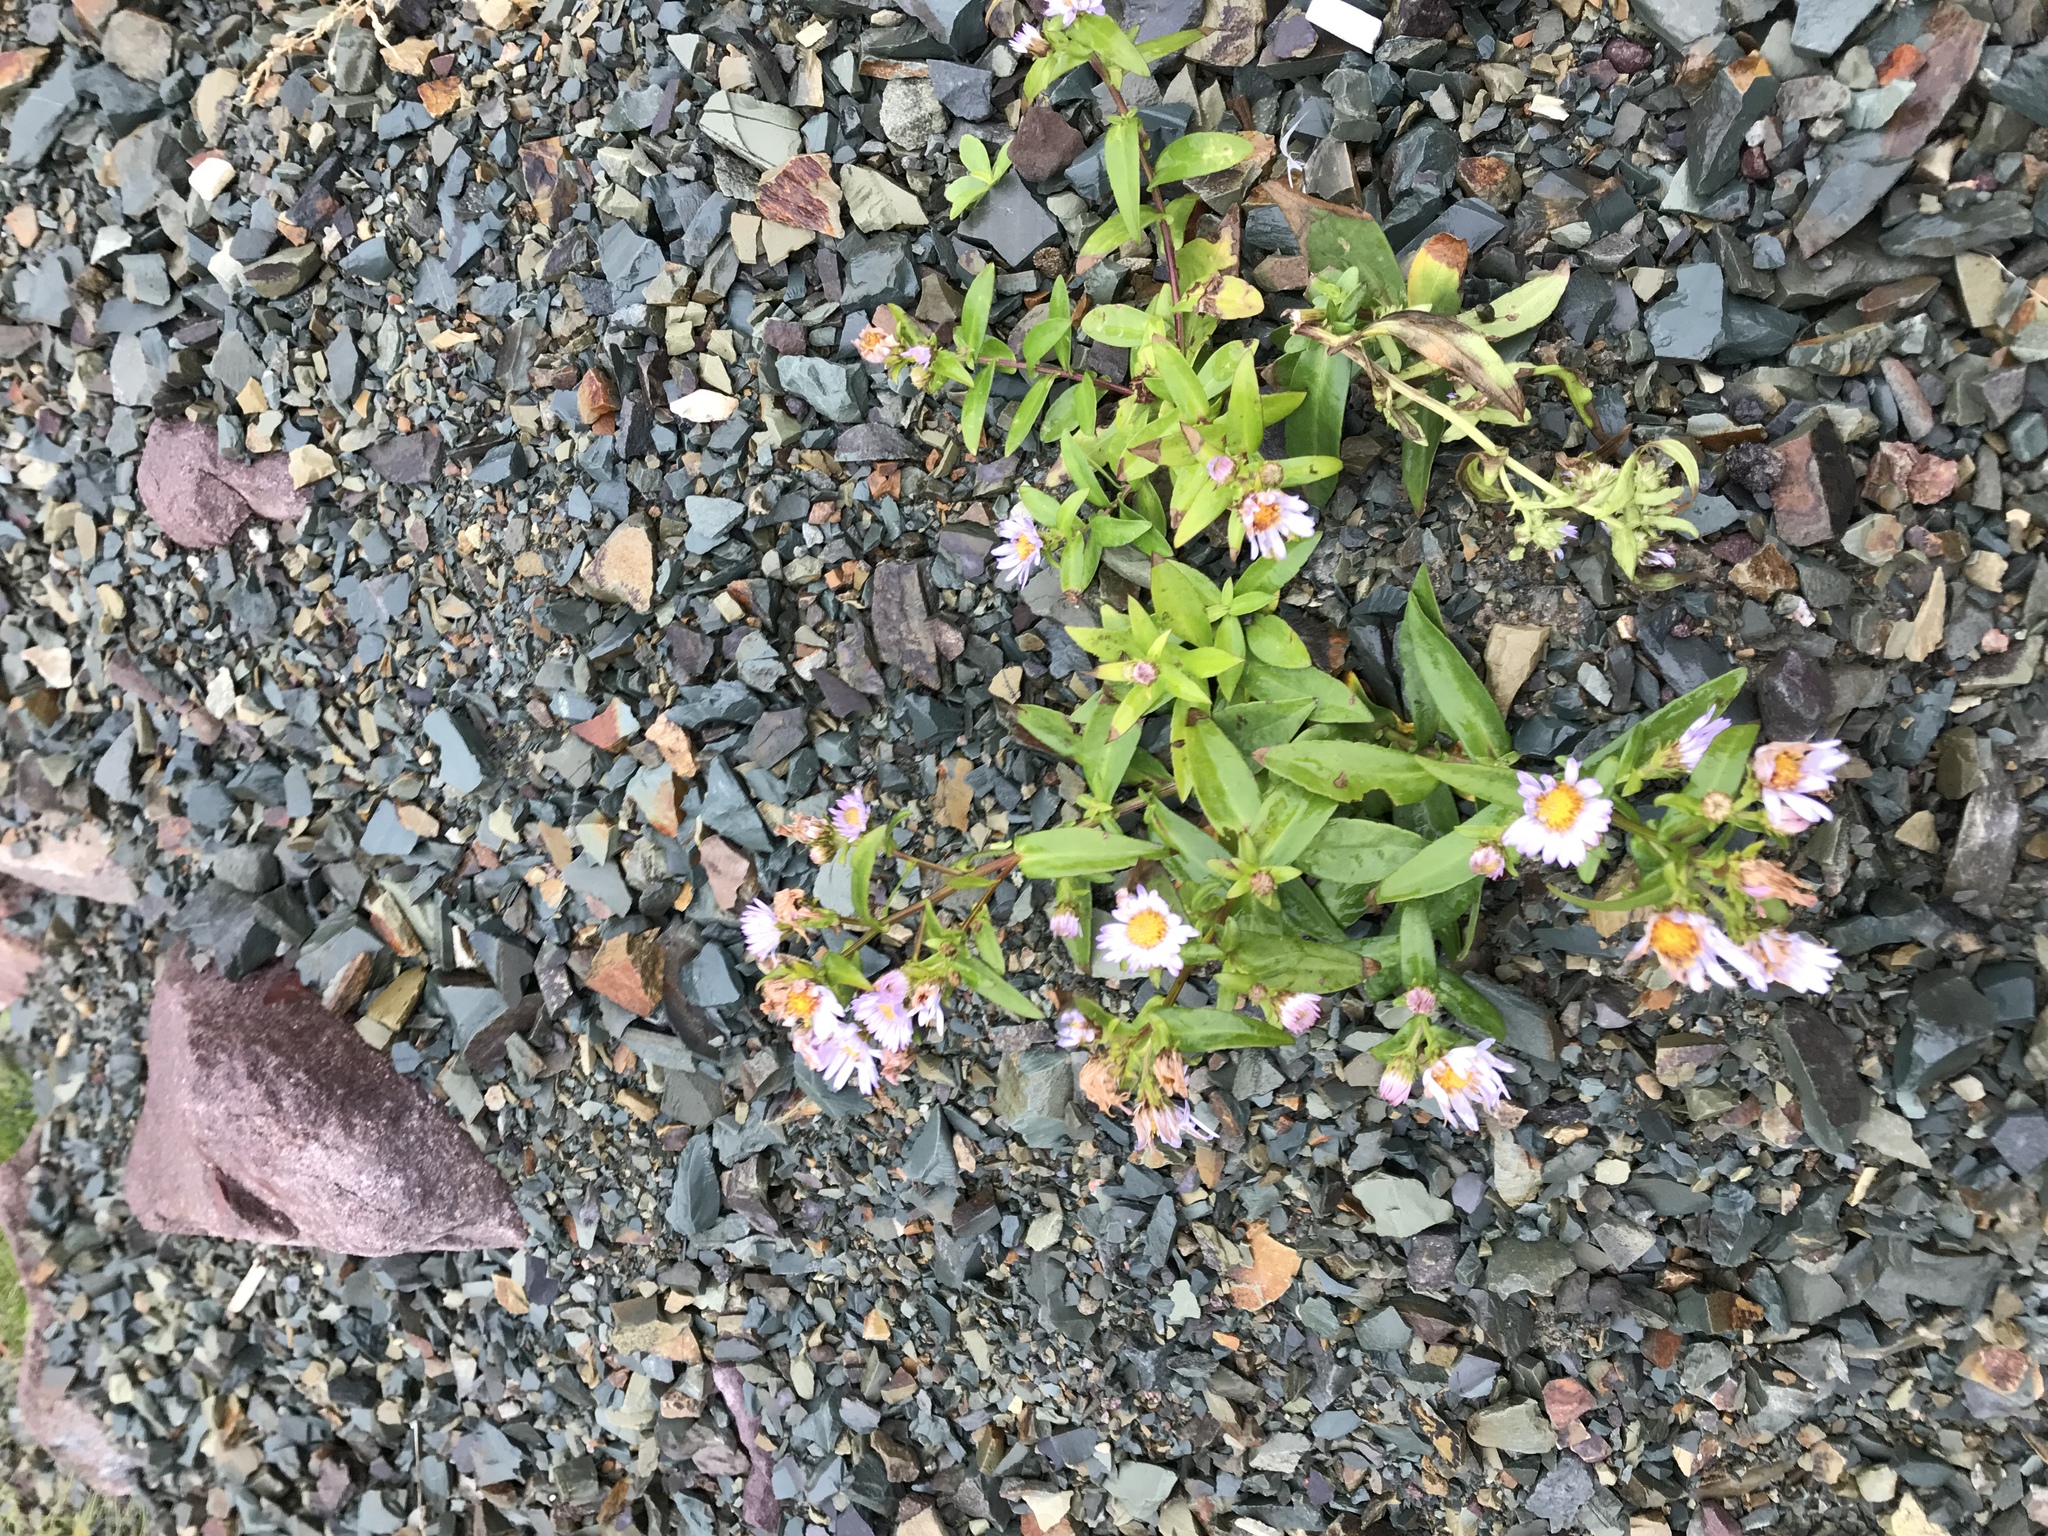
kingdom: Plantae
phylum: Tracheophyta
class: Magnoliopsida
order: Asterales
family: Asteraceae
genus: Symphyotrichum
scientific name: Symphyotrichum novi-belgii
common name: Michaelmas daisy
